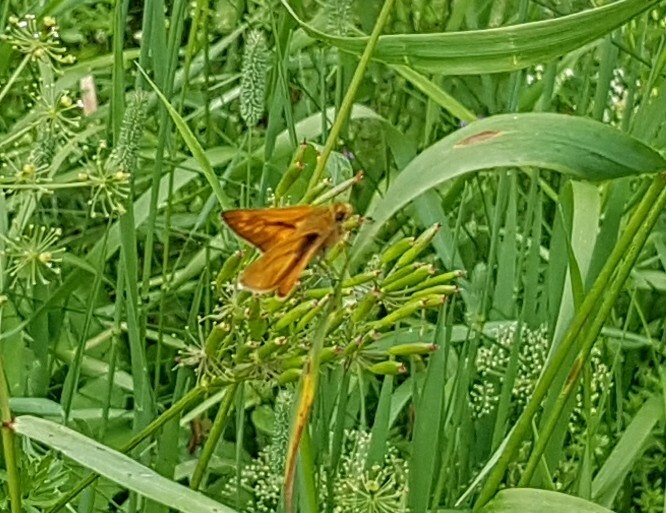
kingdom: Animalia
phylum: Arthropoda
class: Insecta
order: Lepidoptera
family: Hesperiidae
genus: Ochlodes
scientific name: Ochlodes venata
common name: Large skipper
